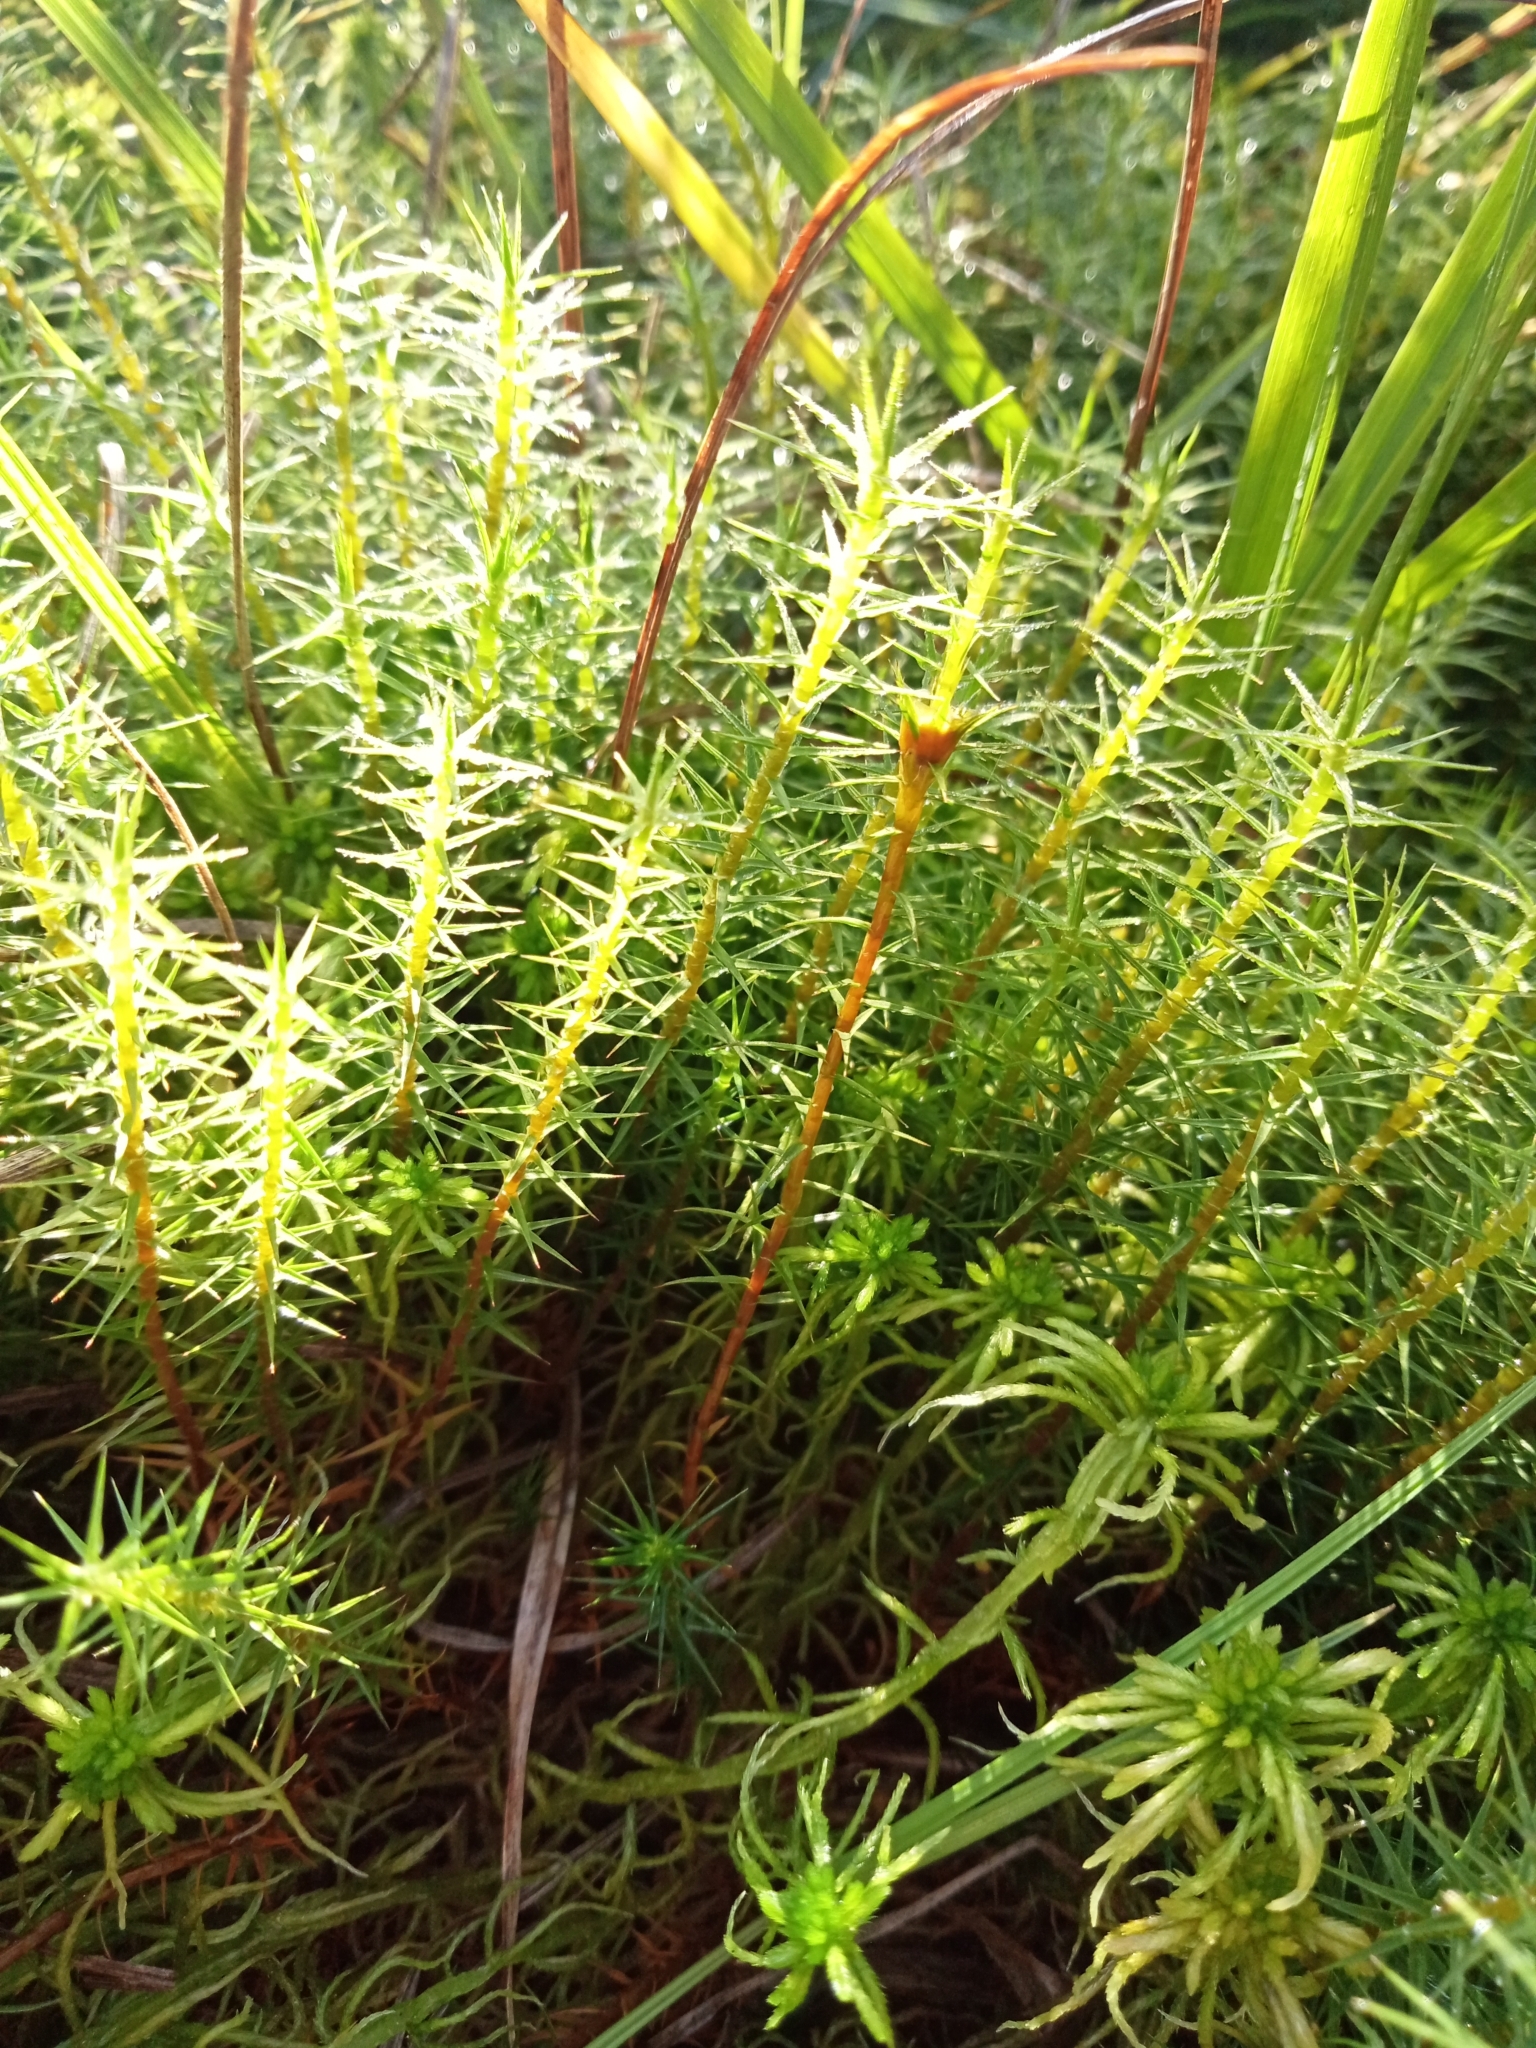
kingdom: Plantae
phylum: Bryophyta
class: Polytrichopsida
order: Polytrichales
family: Polytrichaceae
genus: Polytrichum
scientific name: Polytrichum commune
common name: Common haircap
